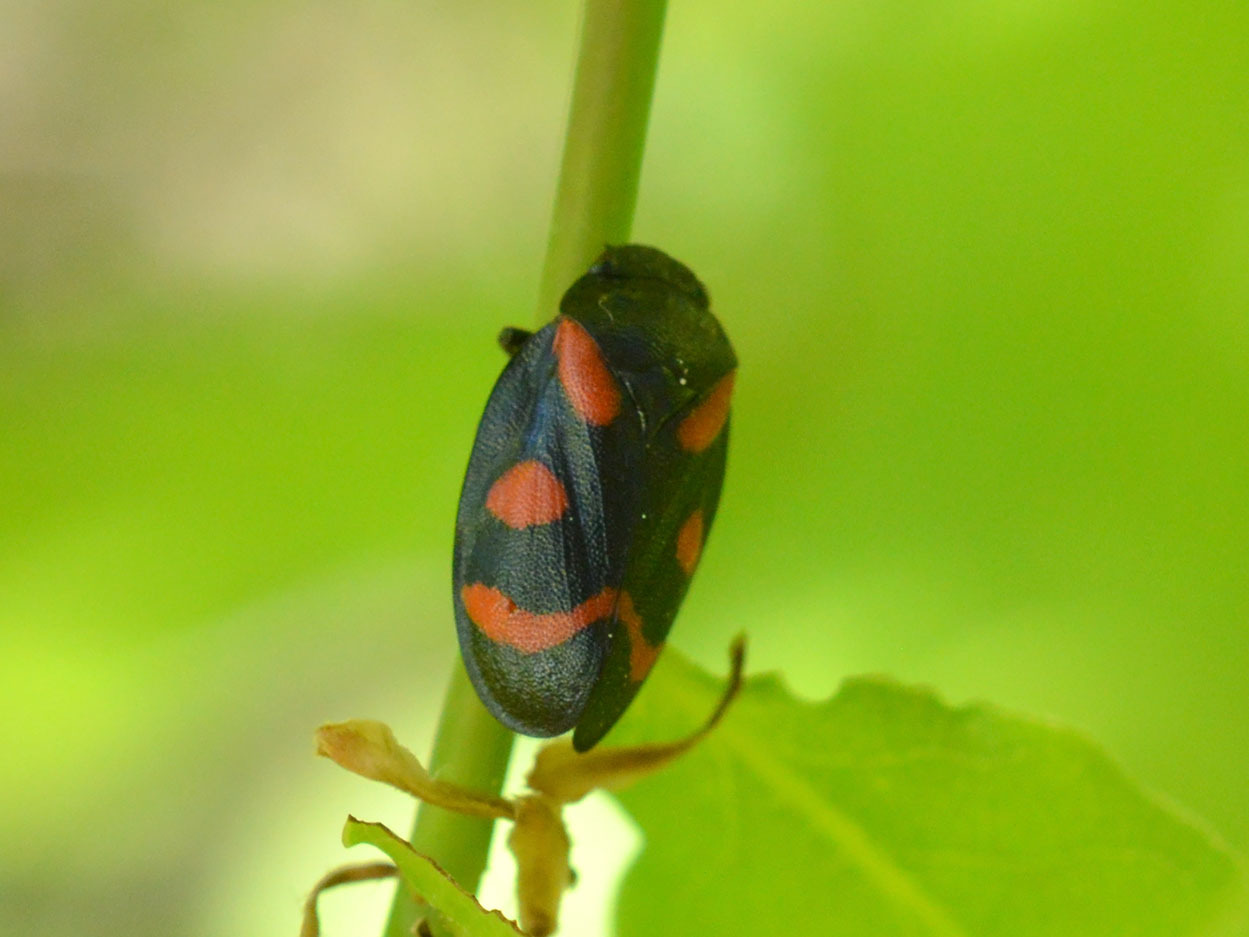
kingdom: Animalia
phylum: Arthropoda
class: Insecta
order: Hemiptera
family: Cercopidae
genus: Cercopis
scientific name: Cercopis arcuata
